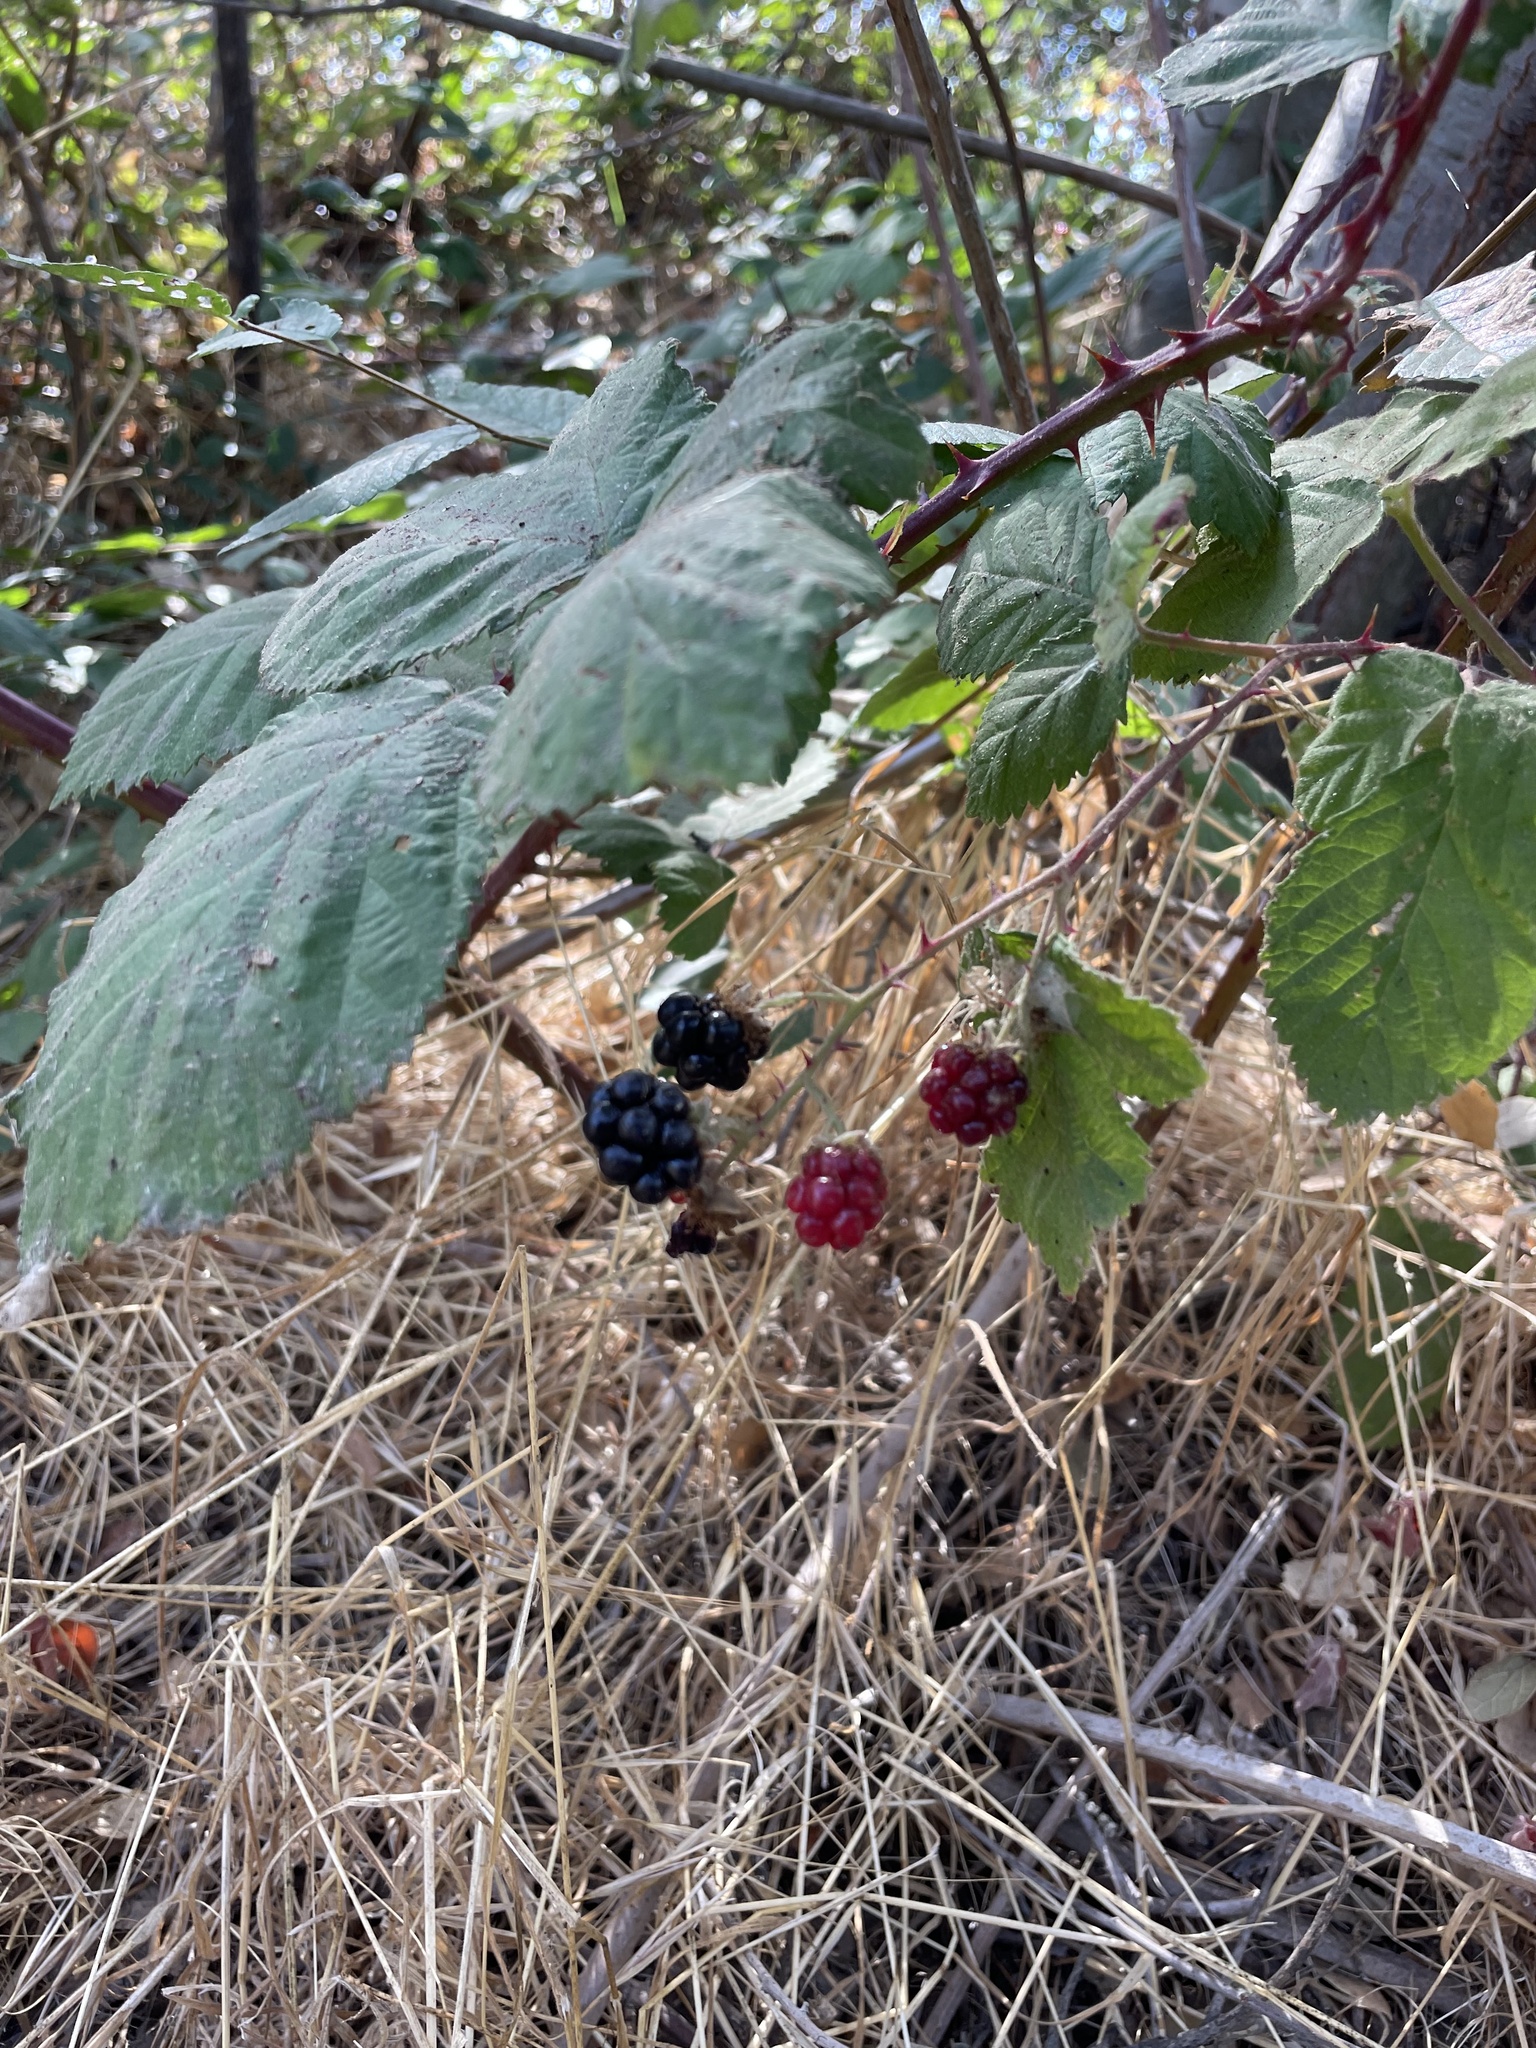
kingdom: Plantae
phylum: Tracheophyta
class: Magnoliopsida
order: Rosales
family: Rosaceae
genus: Rubus
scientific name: Rubus armeniacus
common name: Himalayan blackberry
